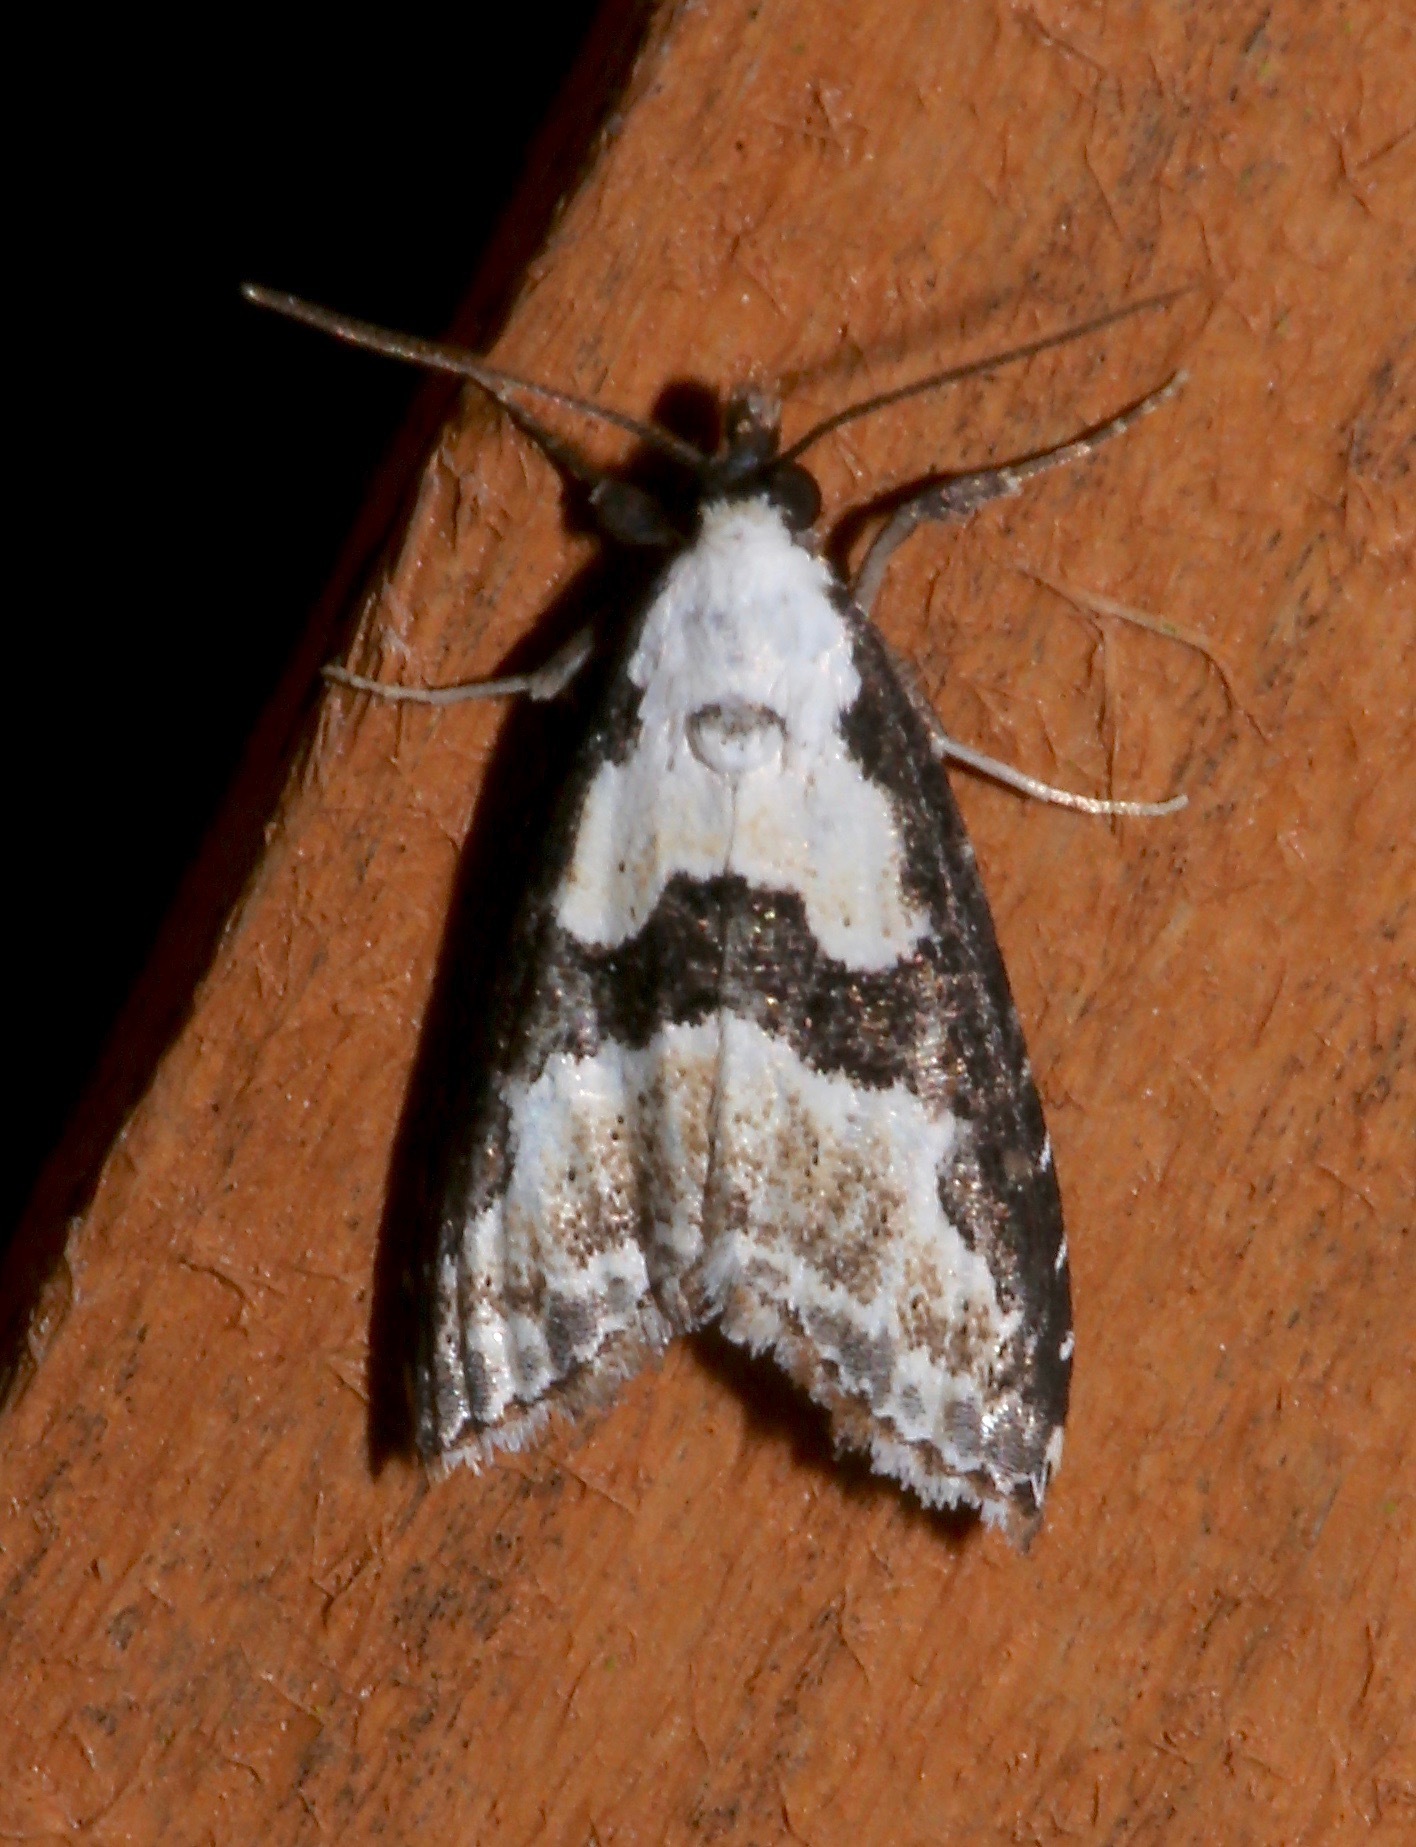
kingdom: Animalia
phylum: Arthropoda
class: Insecta
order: Lepidoptera
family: Noctuidae
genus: Nigetia
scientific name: Nigetia formosalis
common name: Thin-winged owlet
